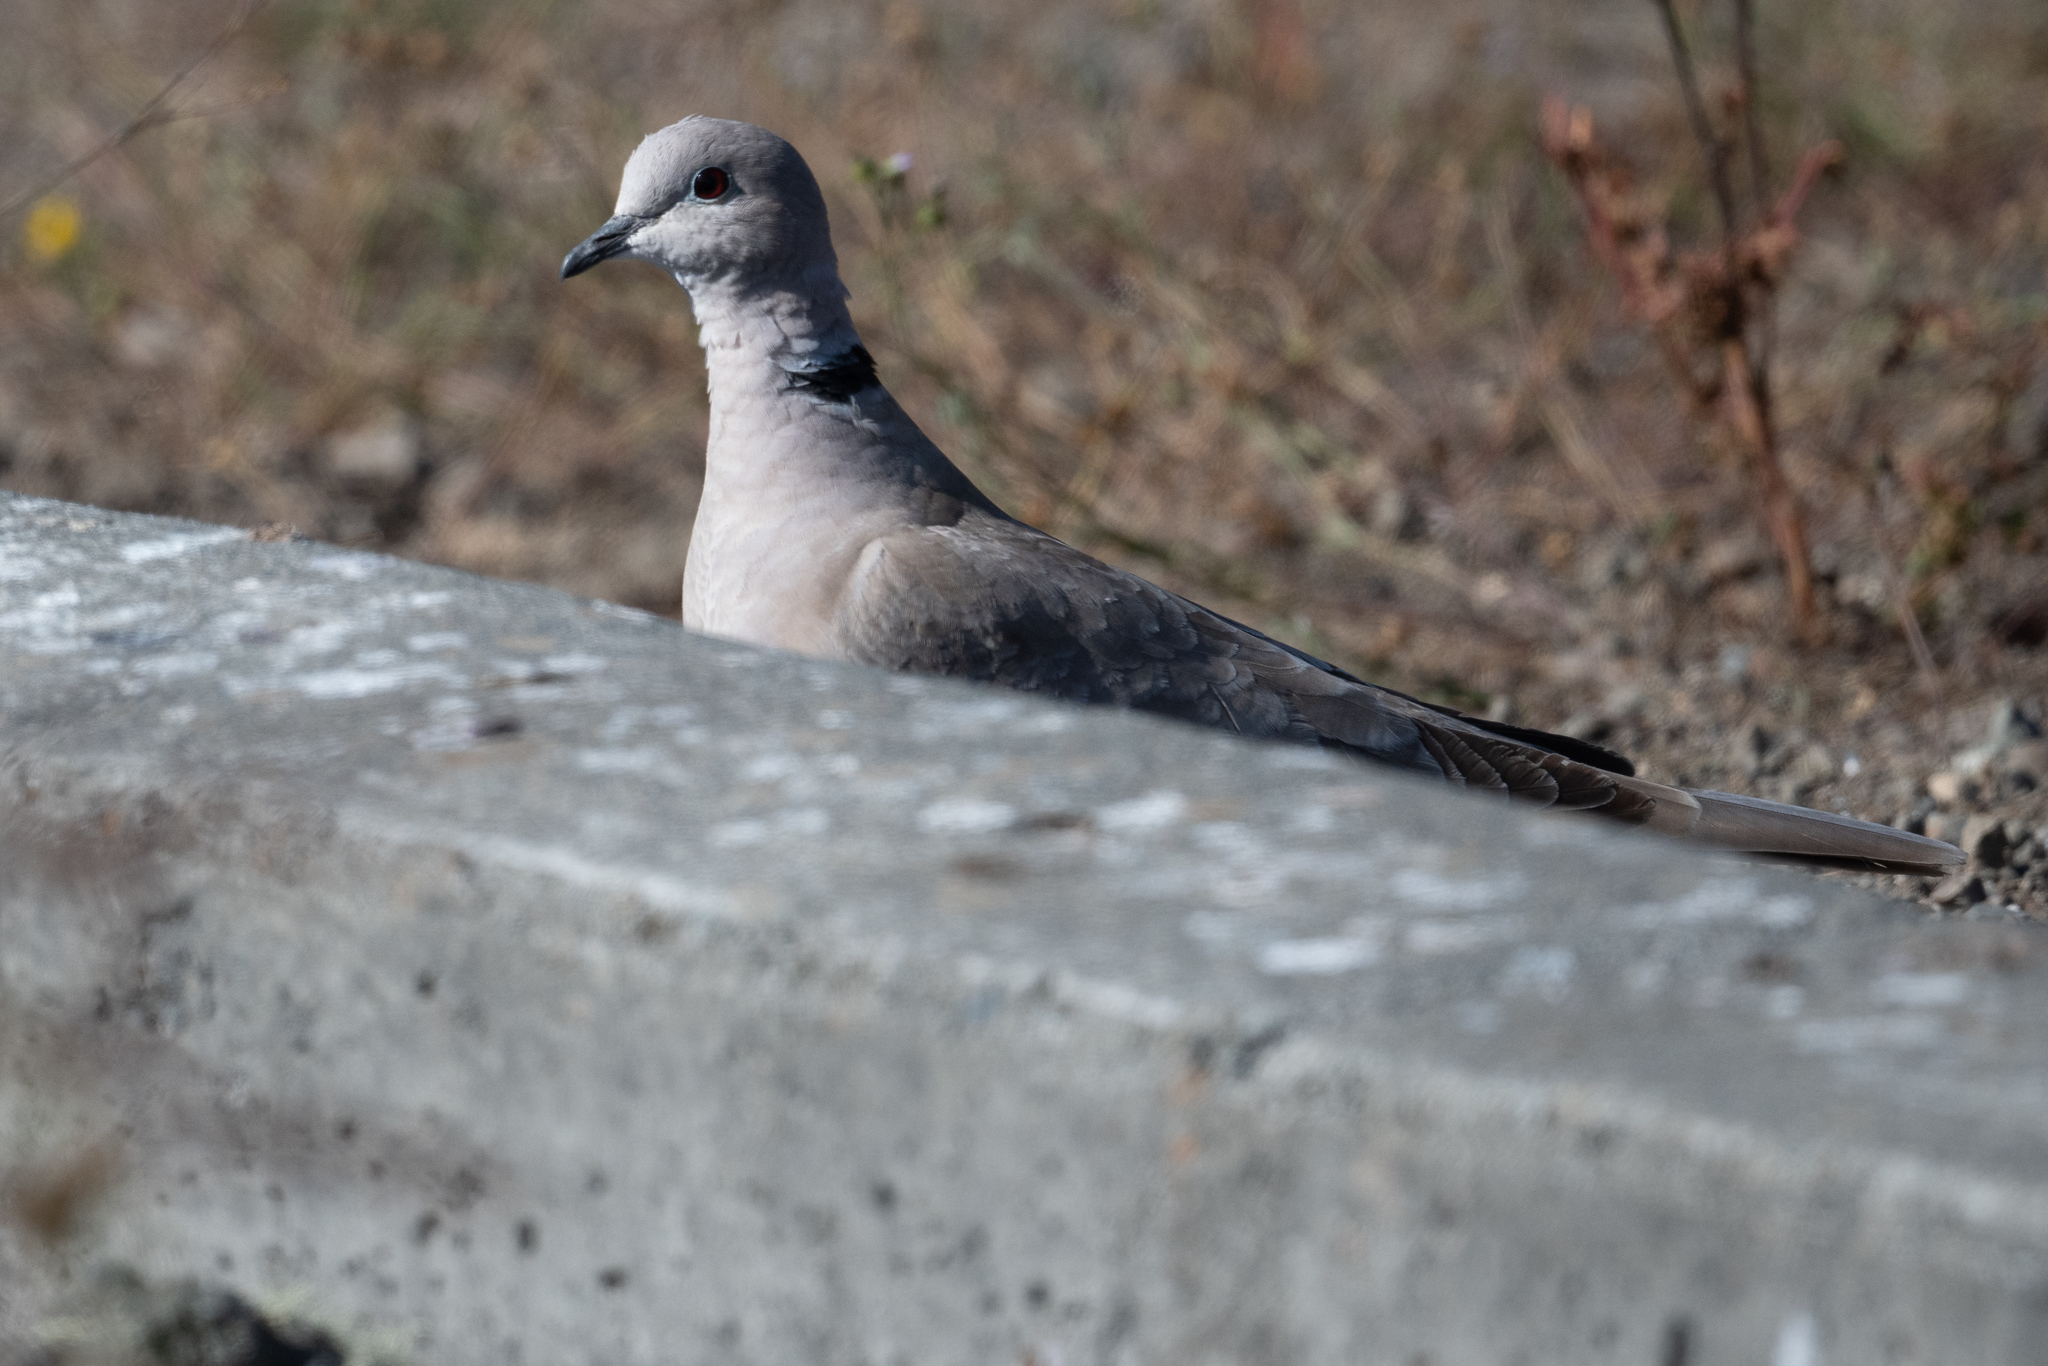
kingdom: Animalia
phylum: Chordata
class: Aves
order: Columbiformes
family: Columbidae
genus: Streptopelia
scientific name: Streptopelia decaocto
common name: Eurasian collared dove
